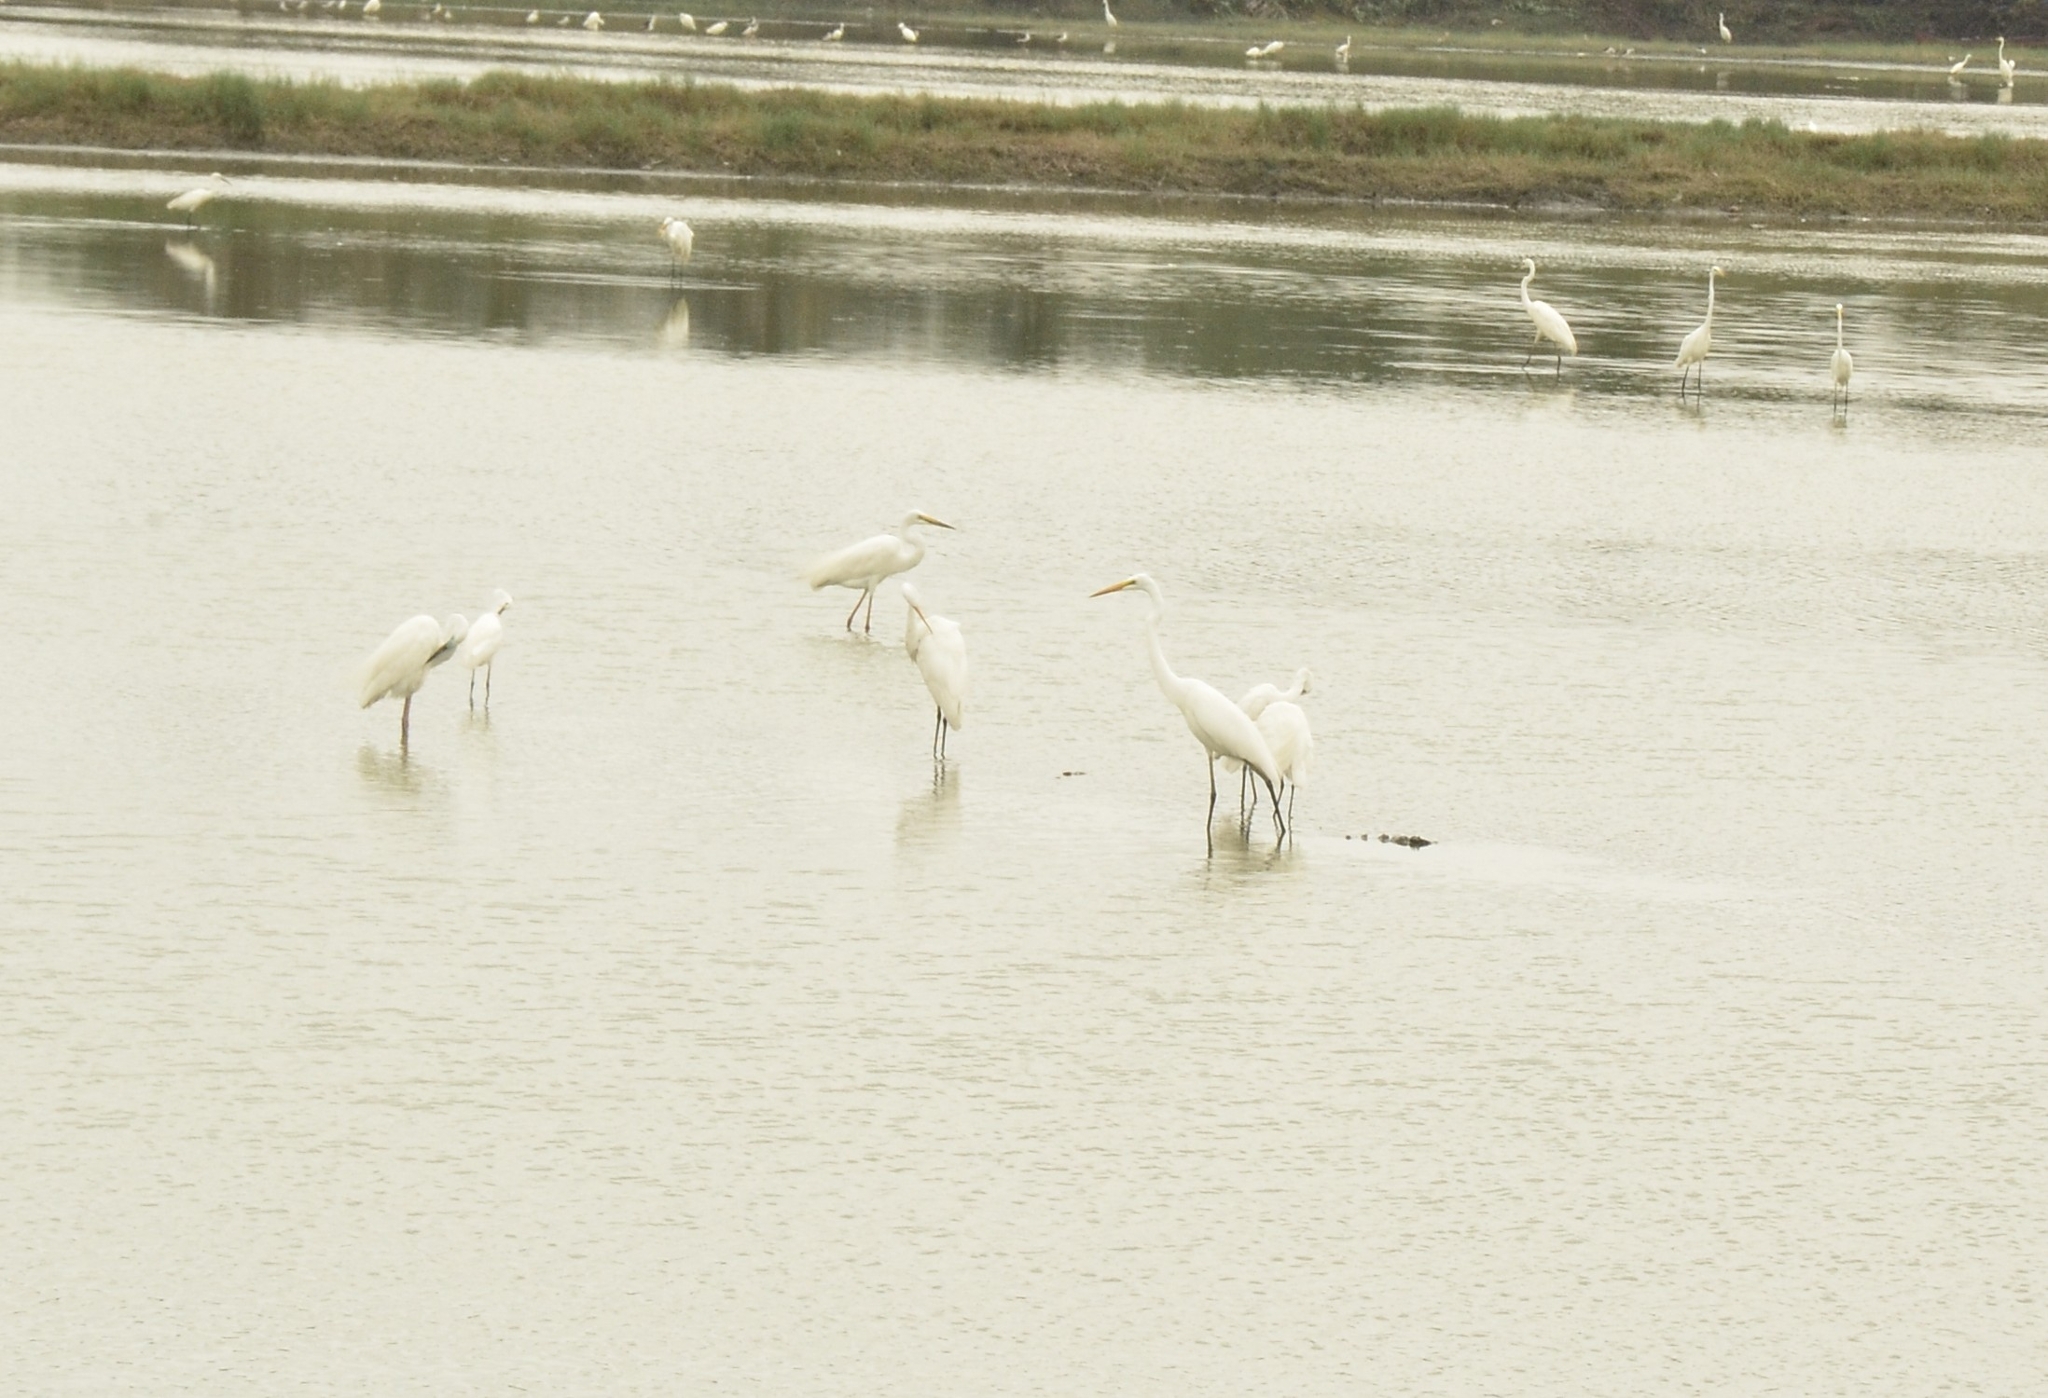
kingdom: Animalia
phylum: Chordata
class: Aves
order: Pelecaniformes
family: Ardeidae
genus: Ardea
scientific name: Ardea alba
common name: Great egret
